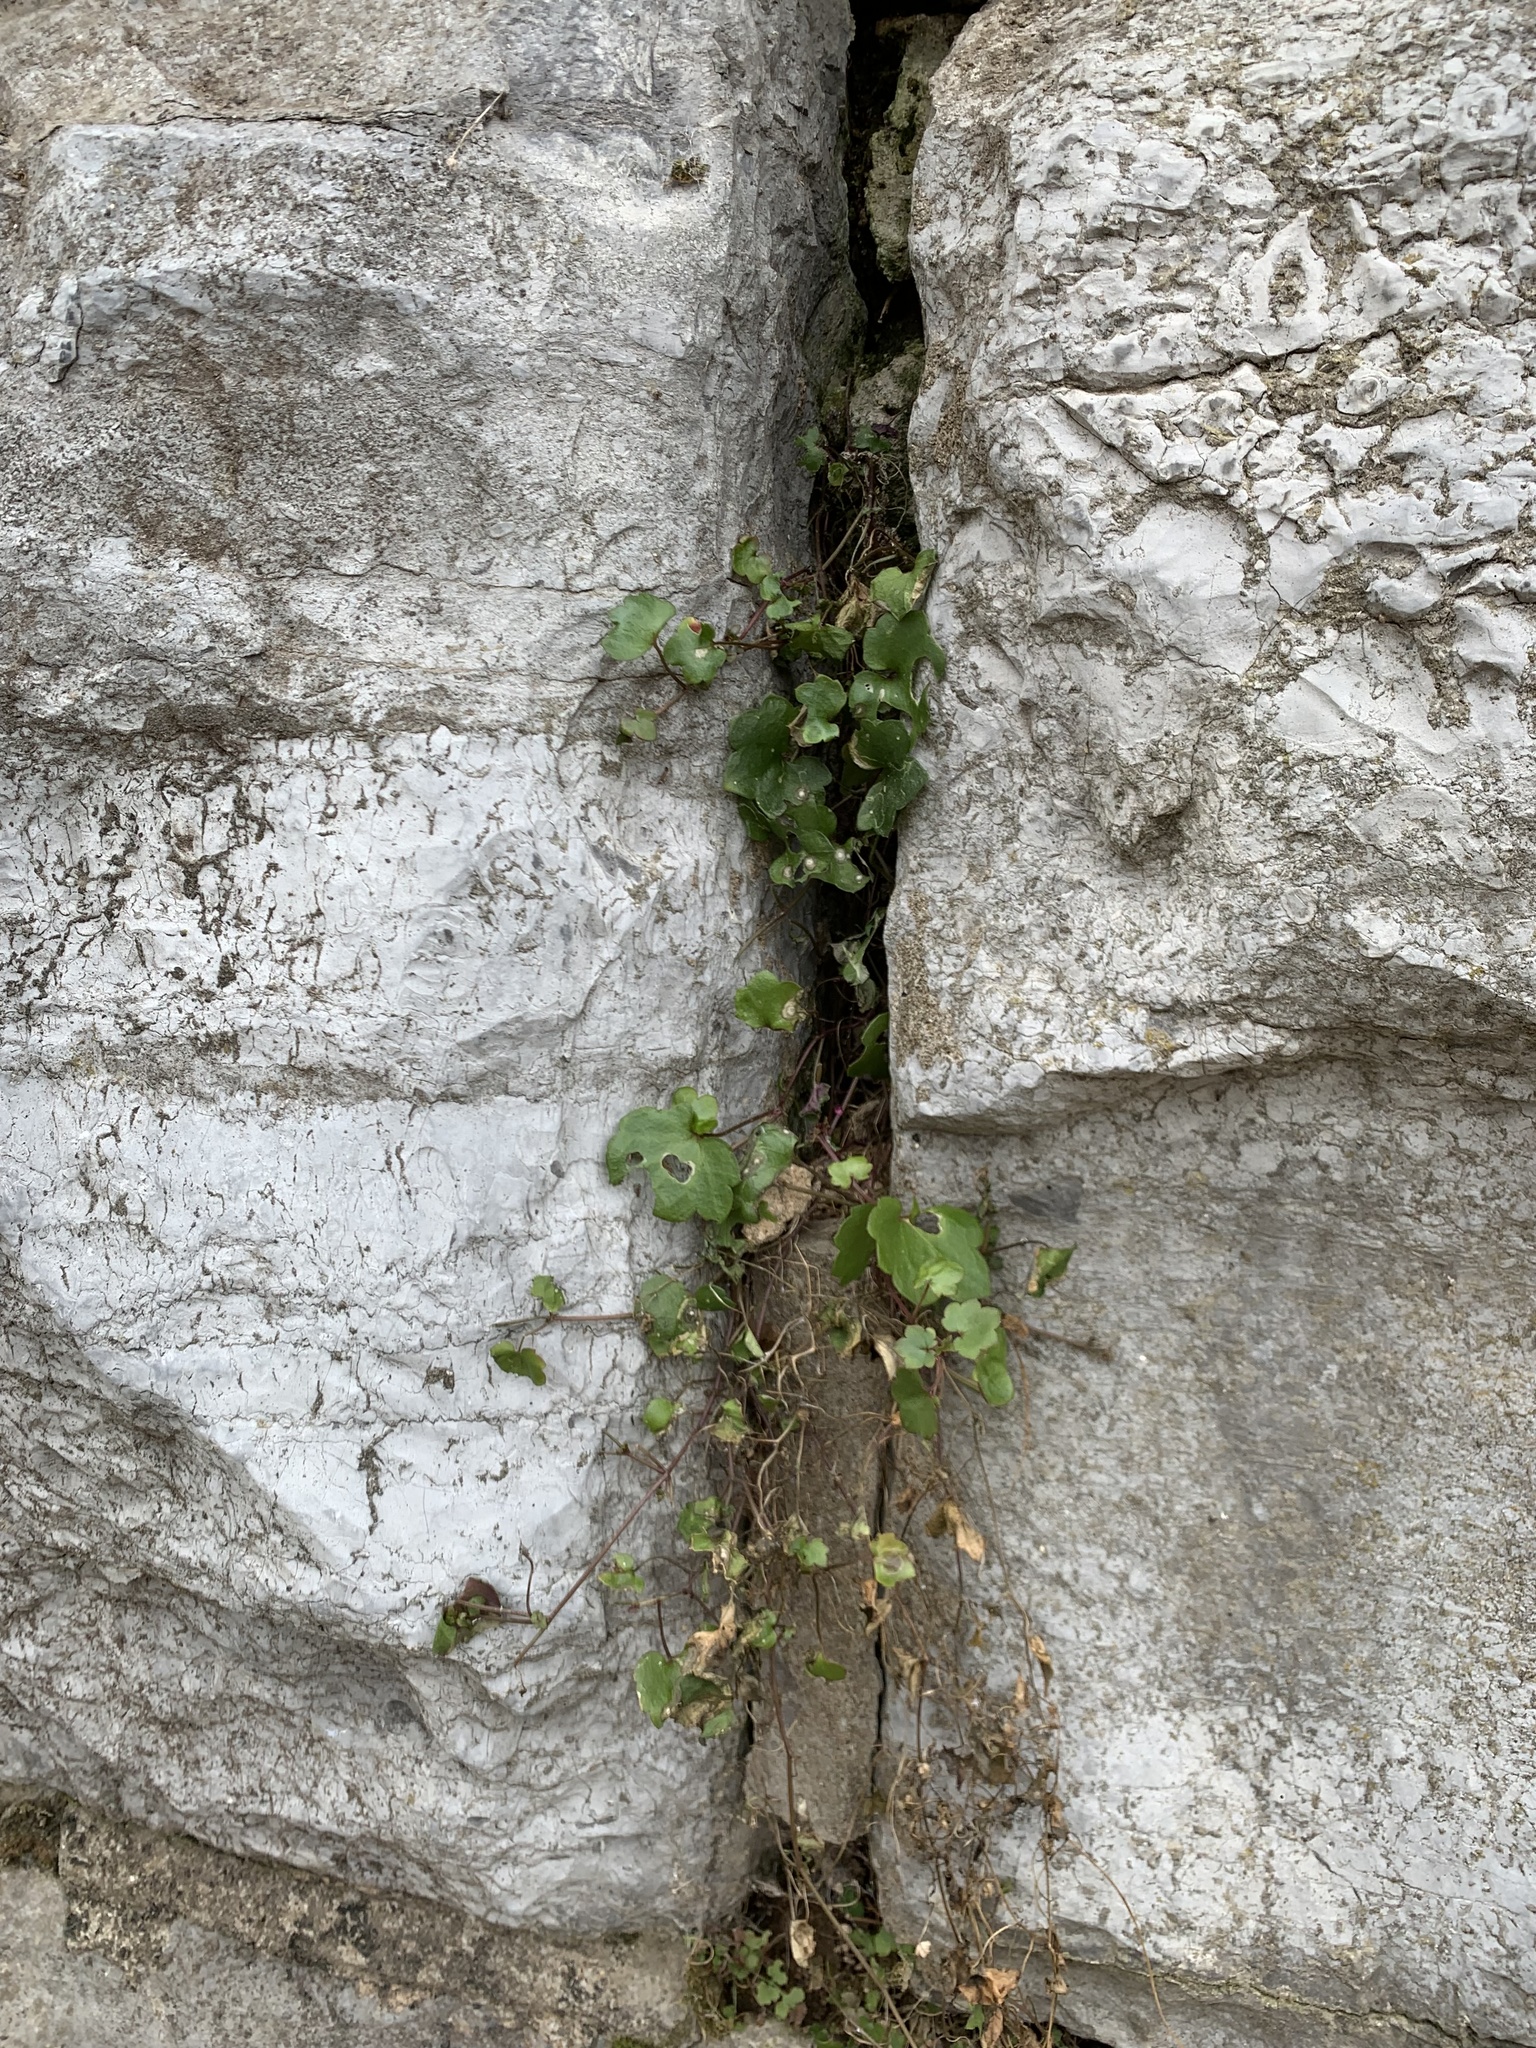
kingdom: Plantae
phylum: Tracheophyta
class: Magnoliopsida
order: Lamiales
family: Plantaginaceae
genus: Cymbalaria
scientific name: Cymbalaria muralis
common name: Ivy-leaved toadflax
